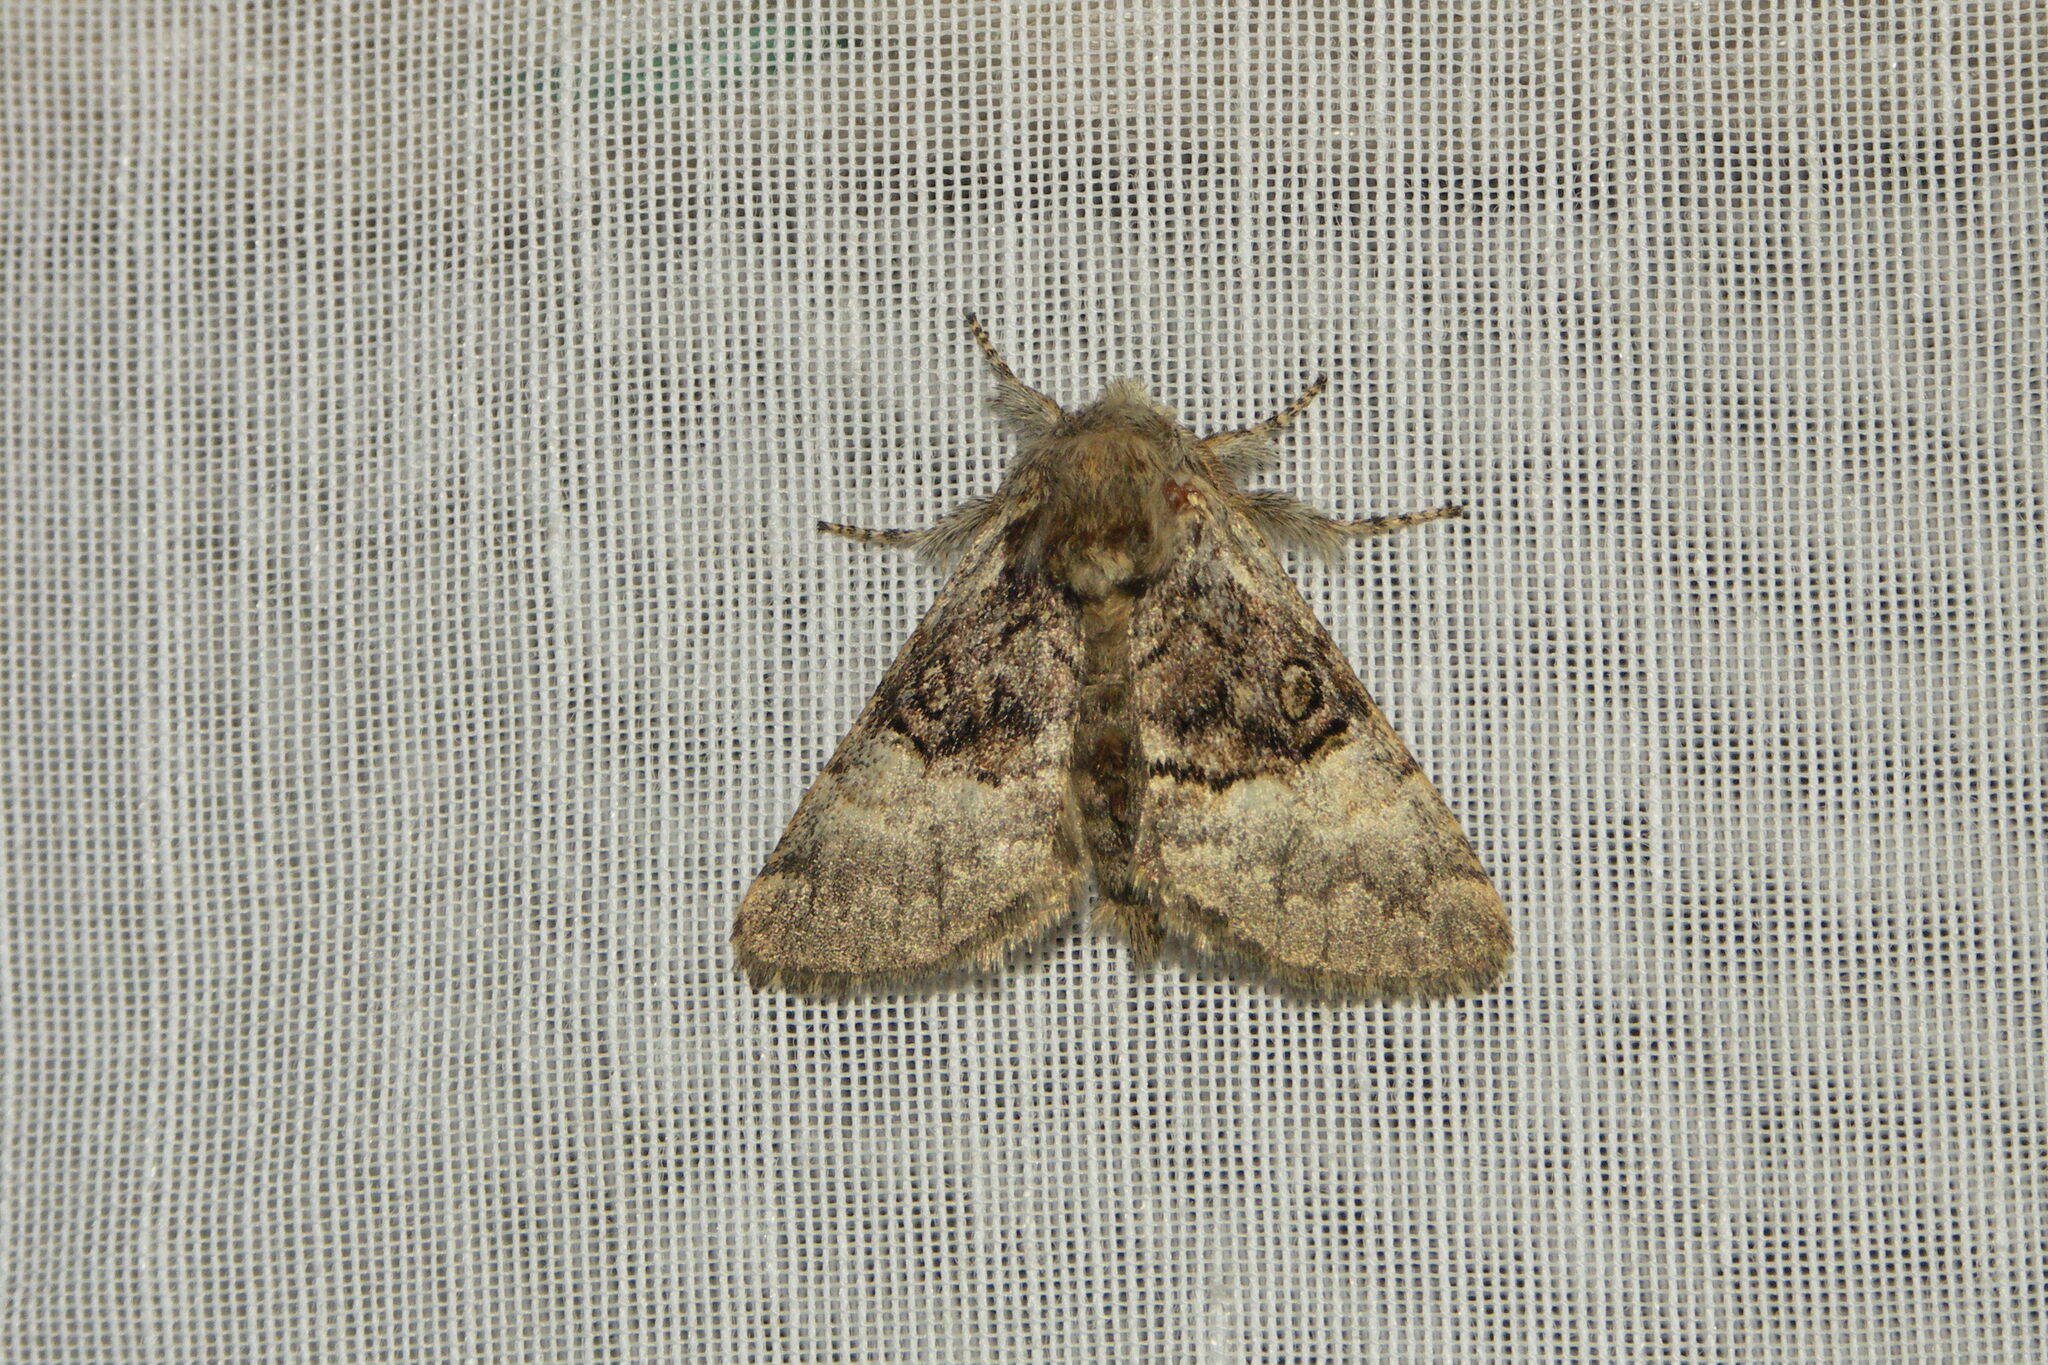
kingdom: Animalia
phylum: Arthropoda
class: Insecta
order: Lepidoptera
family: Noctuidae
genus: Colocasia
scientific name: Colocasia coryli
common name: Nut-tree tussock
